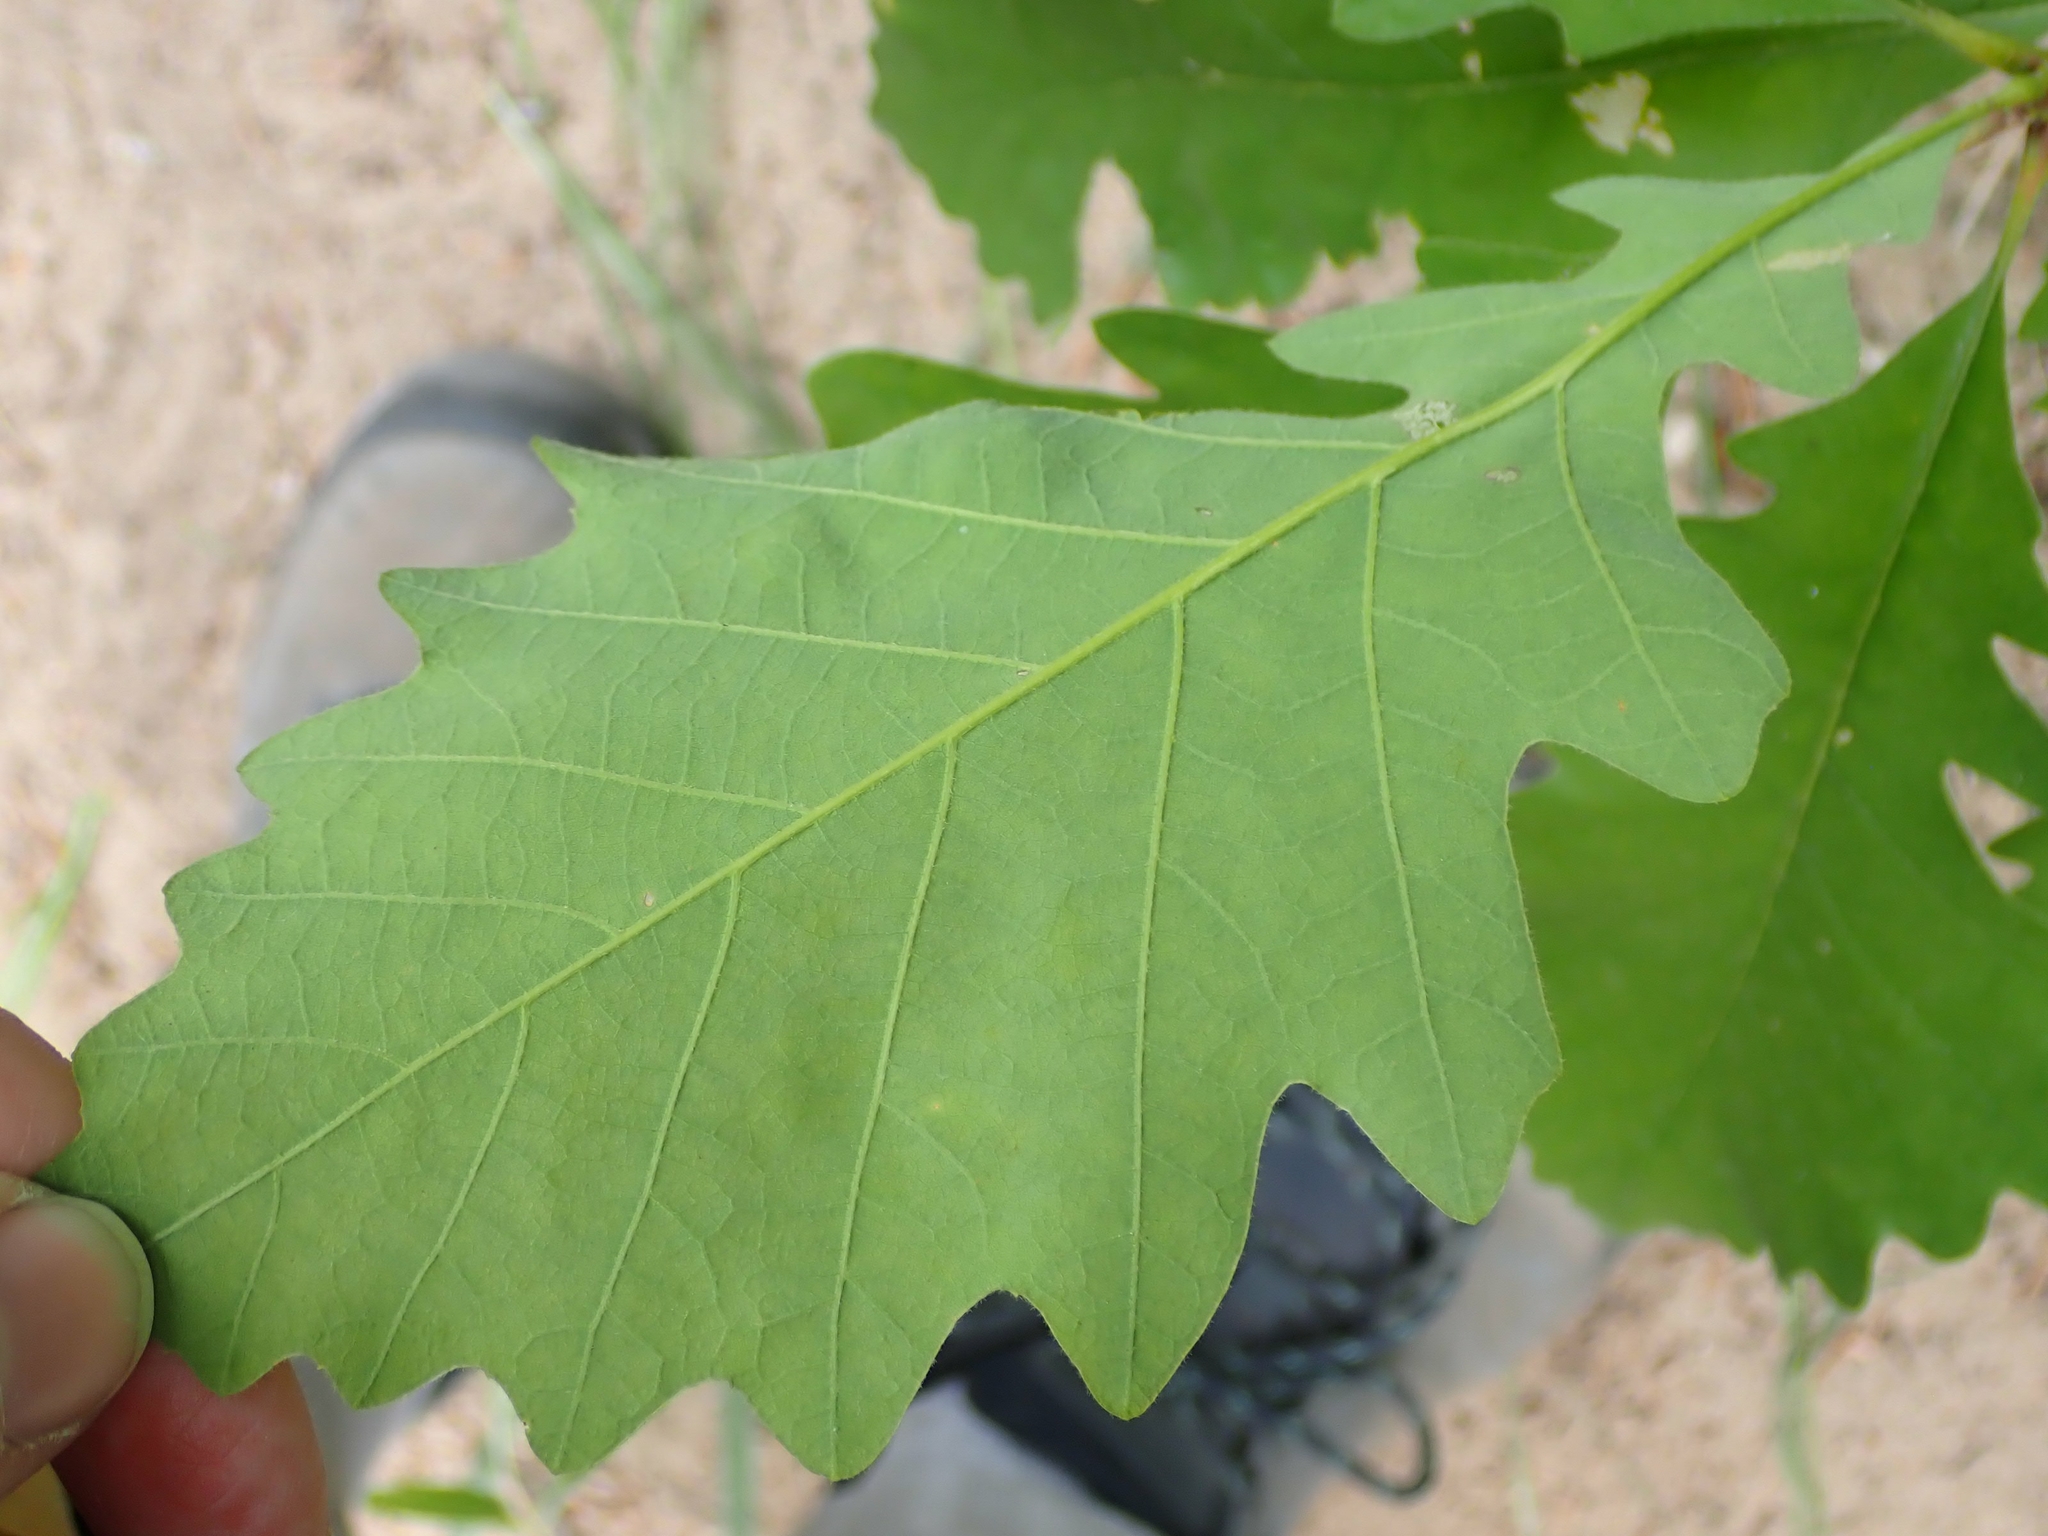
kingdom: Plantae
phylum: Tracheophyta
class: Magnoliopsida
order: Fagales
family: Fagaceae
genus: Quercus
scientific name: Quercus macrocarpa
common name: Bur oak
